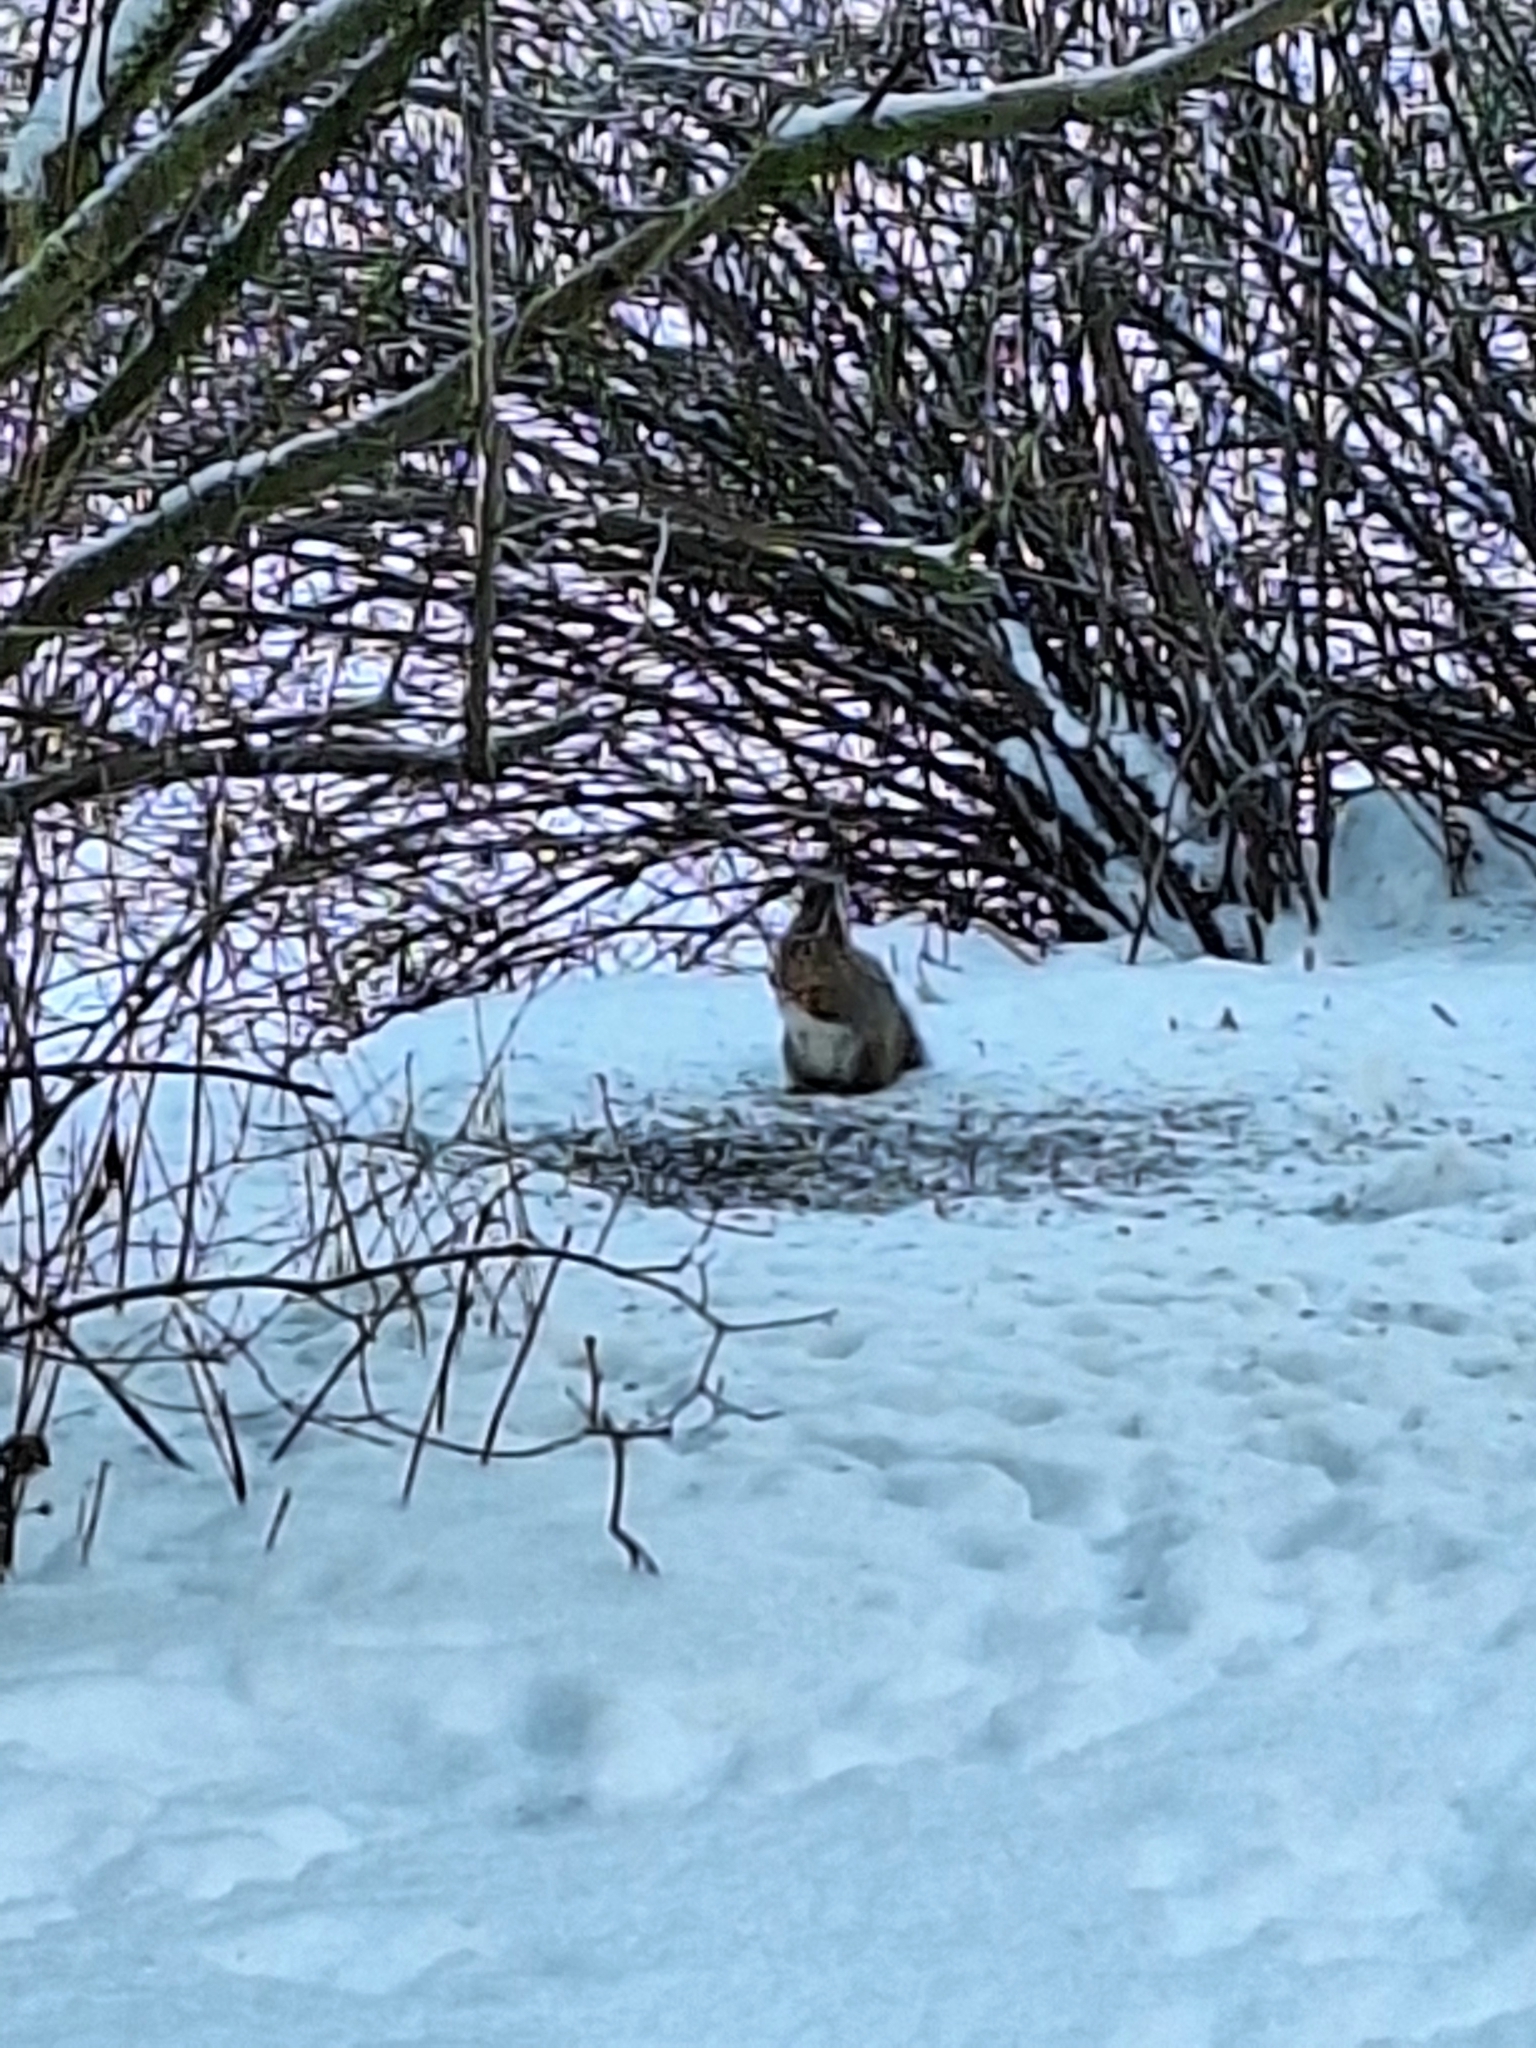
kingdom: Animalia
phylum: Chordata
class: Mammalia
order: Rodentia
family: Sciuridae
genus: Sciurus
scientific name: Sciurus vulgaris
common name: Eurasian red squirrel
